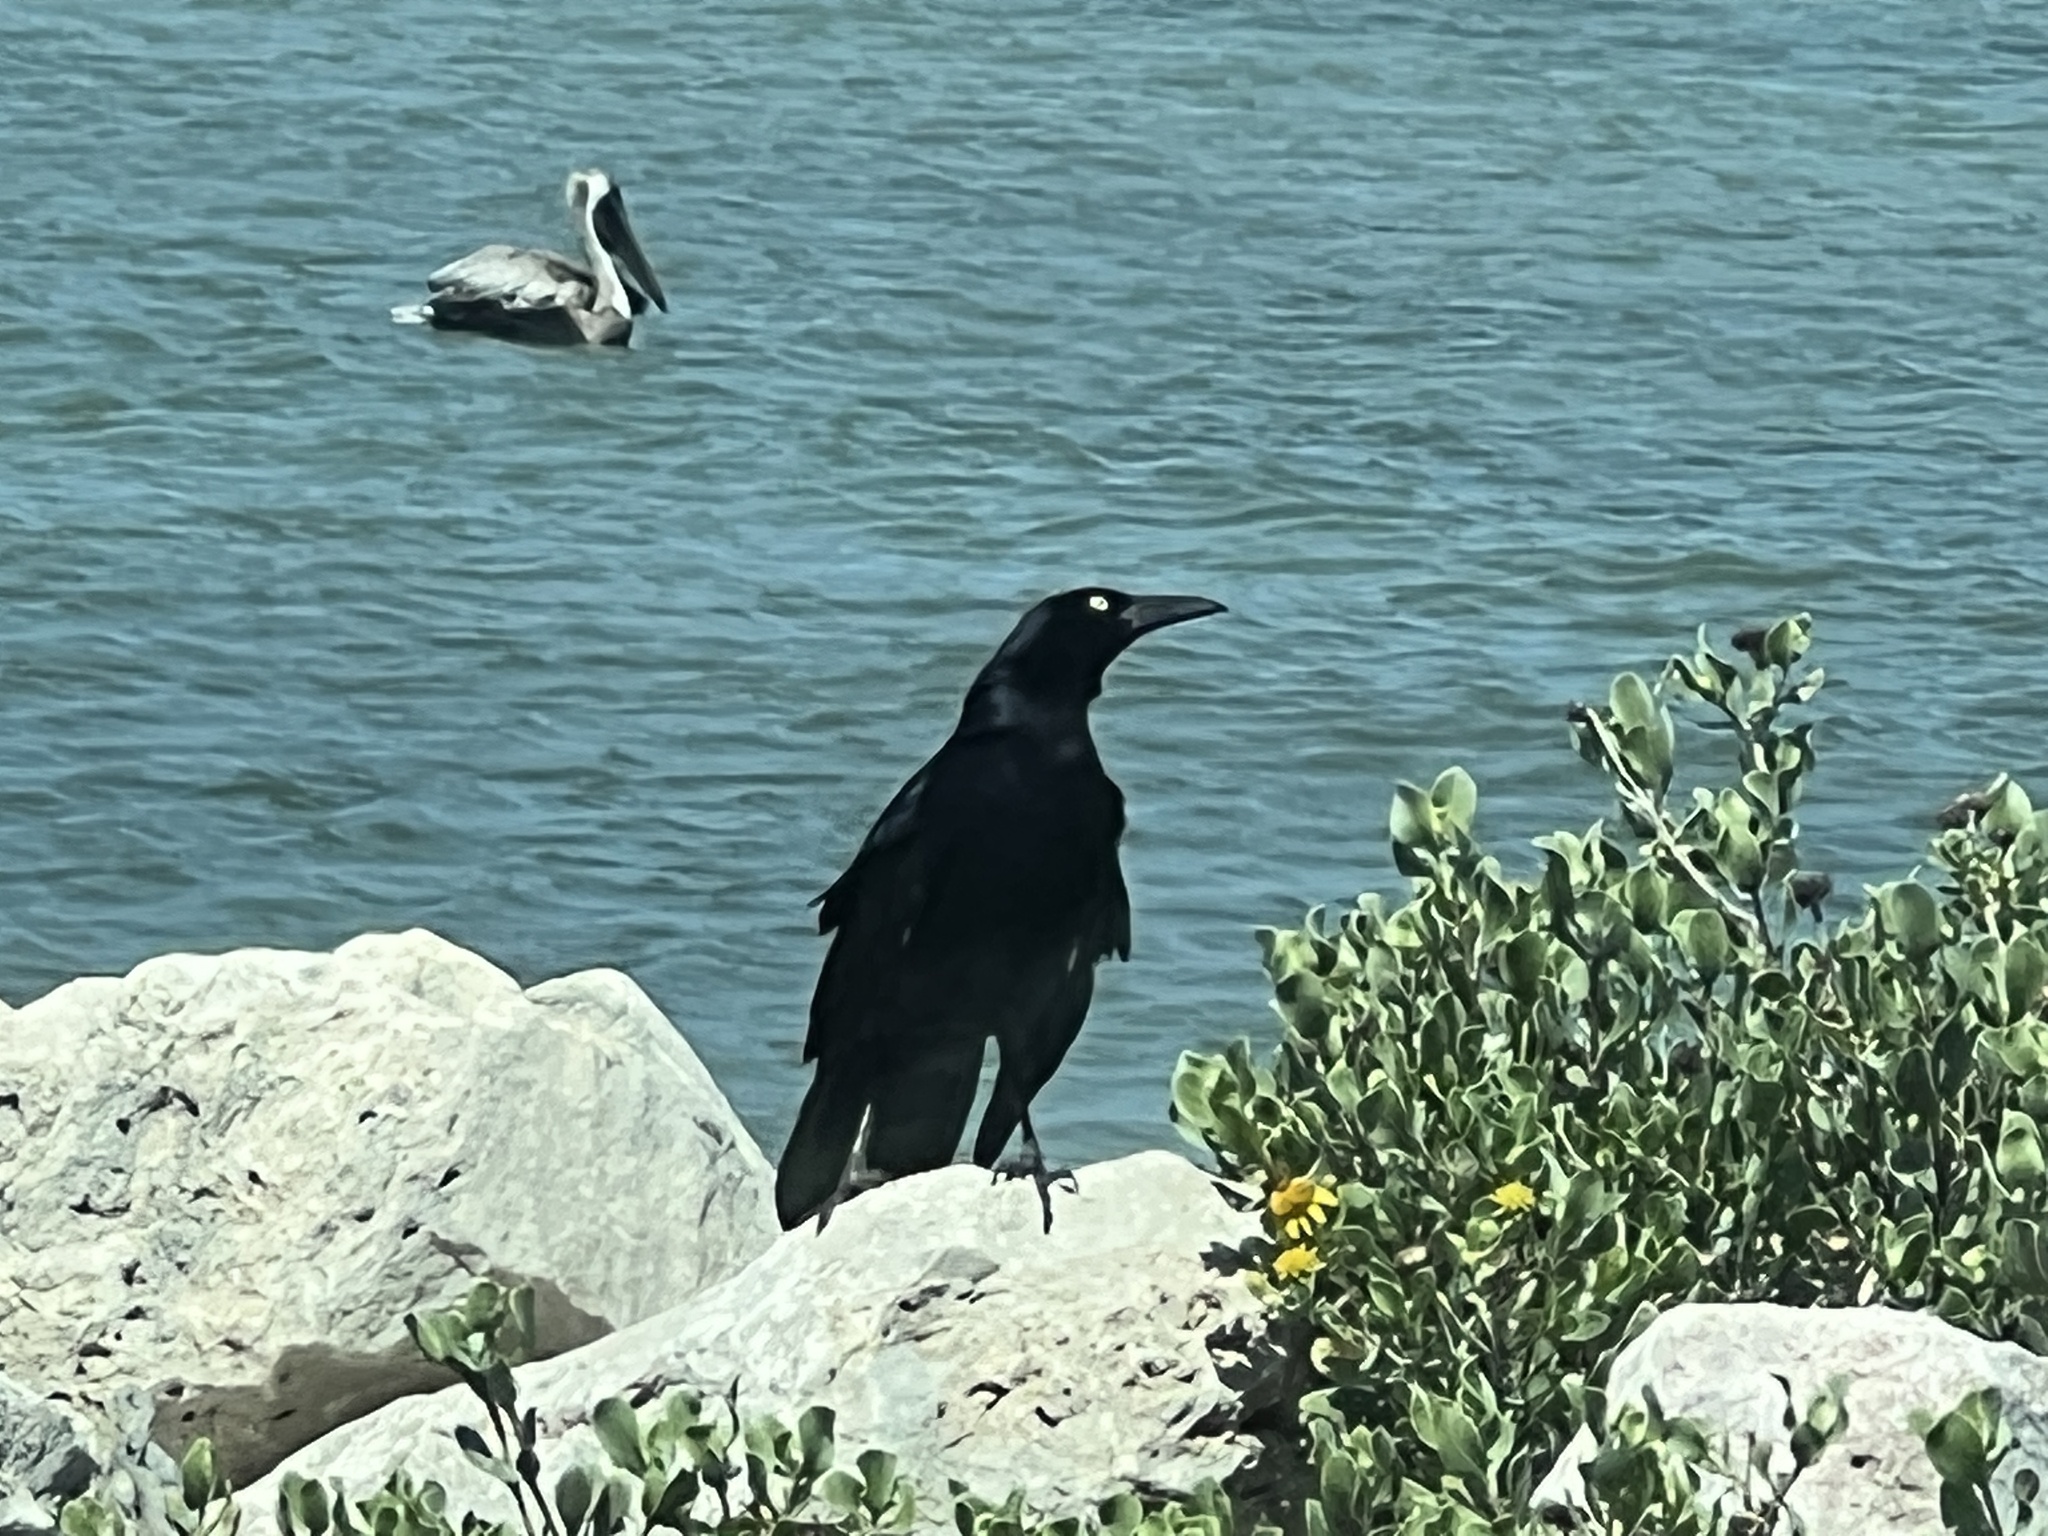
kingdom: Animalia
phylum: Chordata
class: Aves
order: Passeriformes
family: Icteridae
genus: Quiscalus
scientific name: Quiscalus mexicanus
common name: Great-tailed grackle
